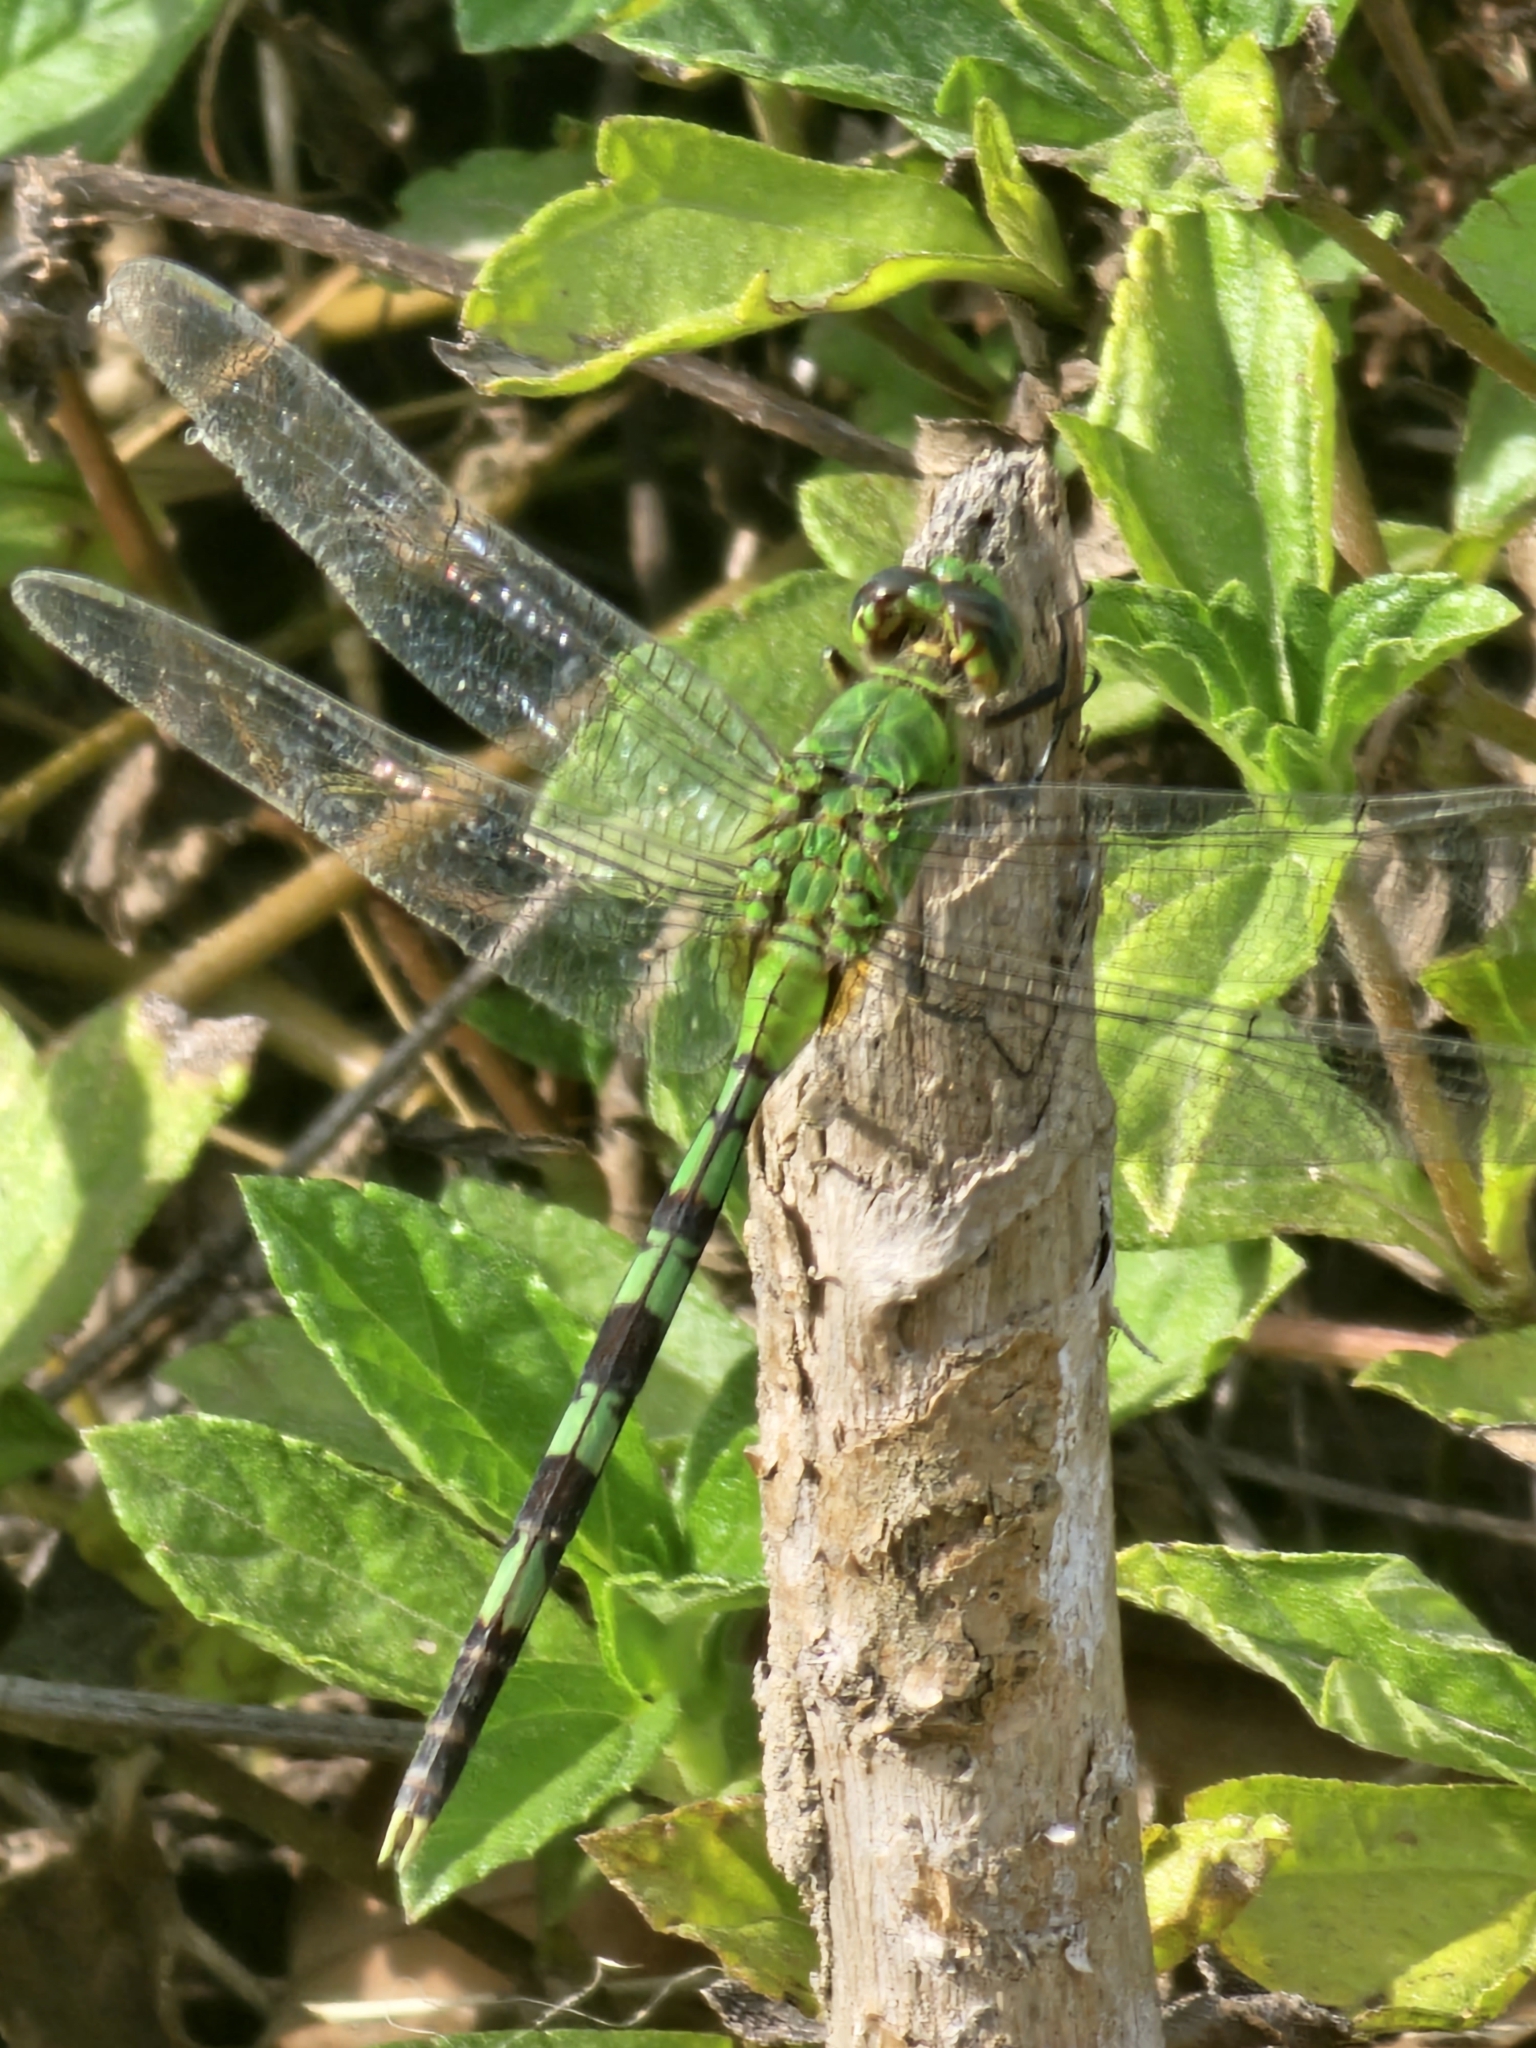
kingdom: Animalia
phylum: Arthropoda
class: Insecta
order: Odonata
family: Libellulidae
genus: Erythemis
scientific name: Erythemis vesiculosa
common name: Great pondhawk
